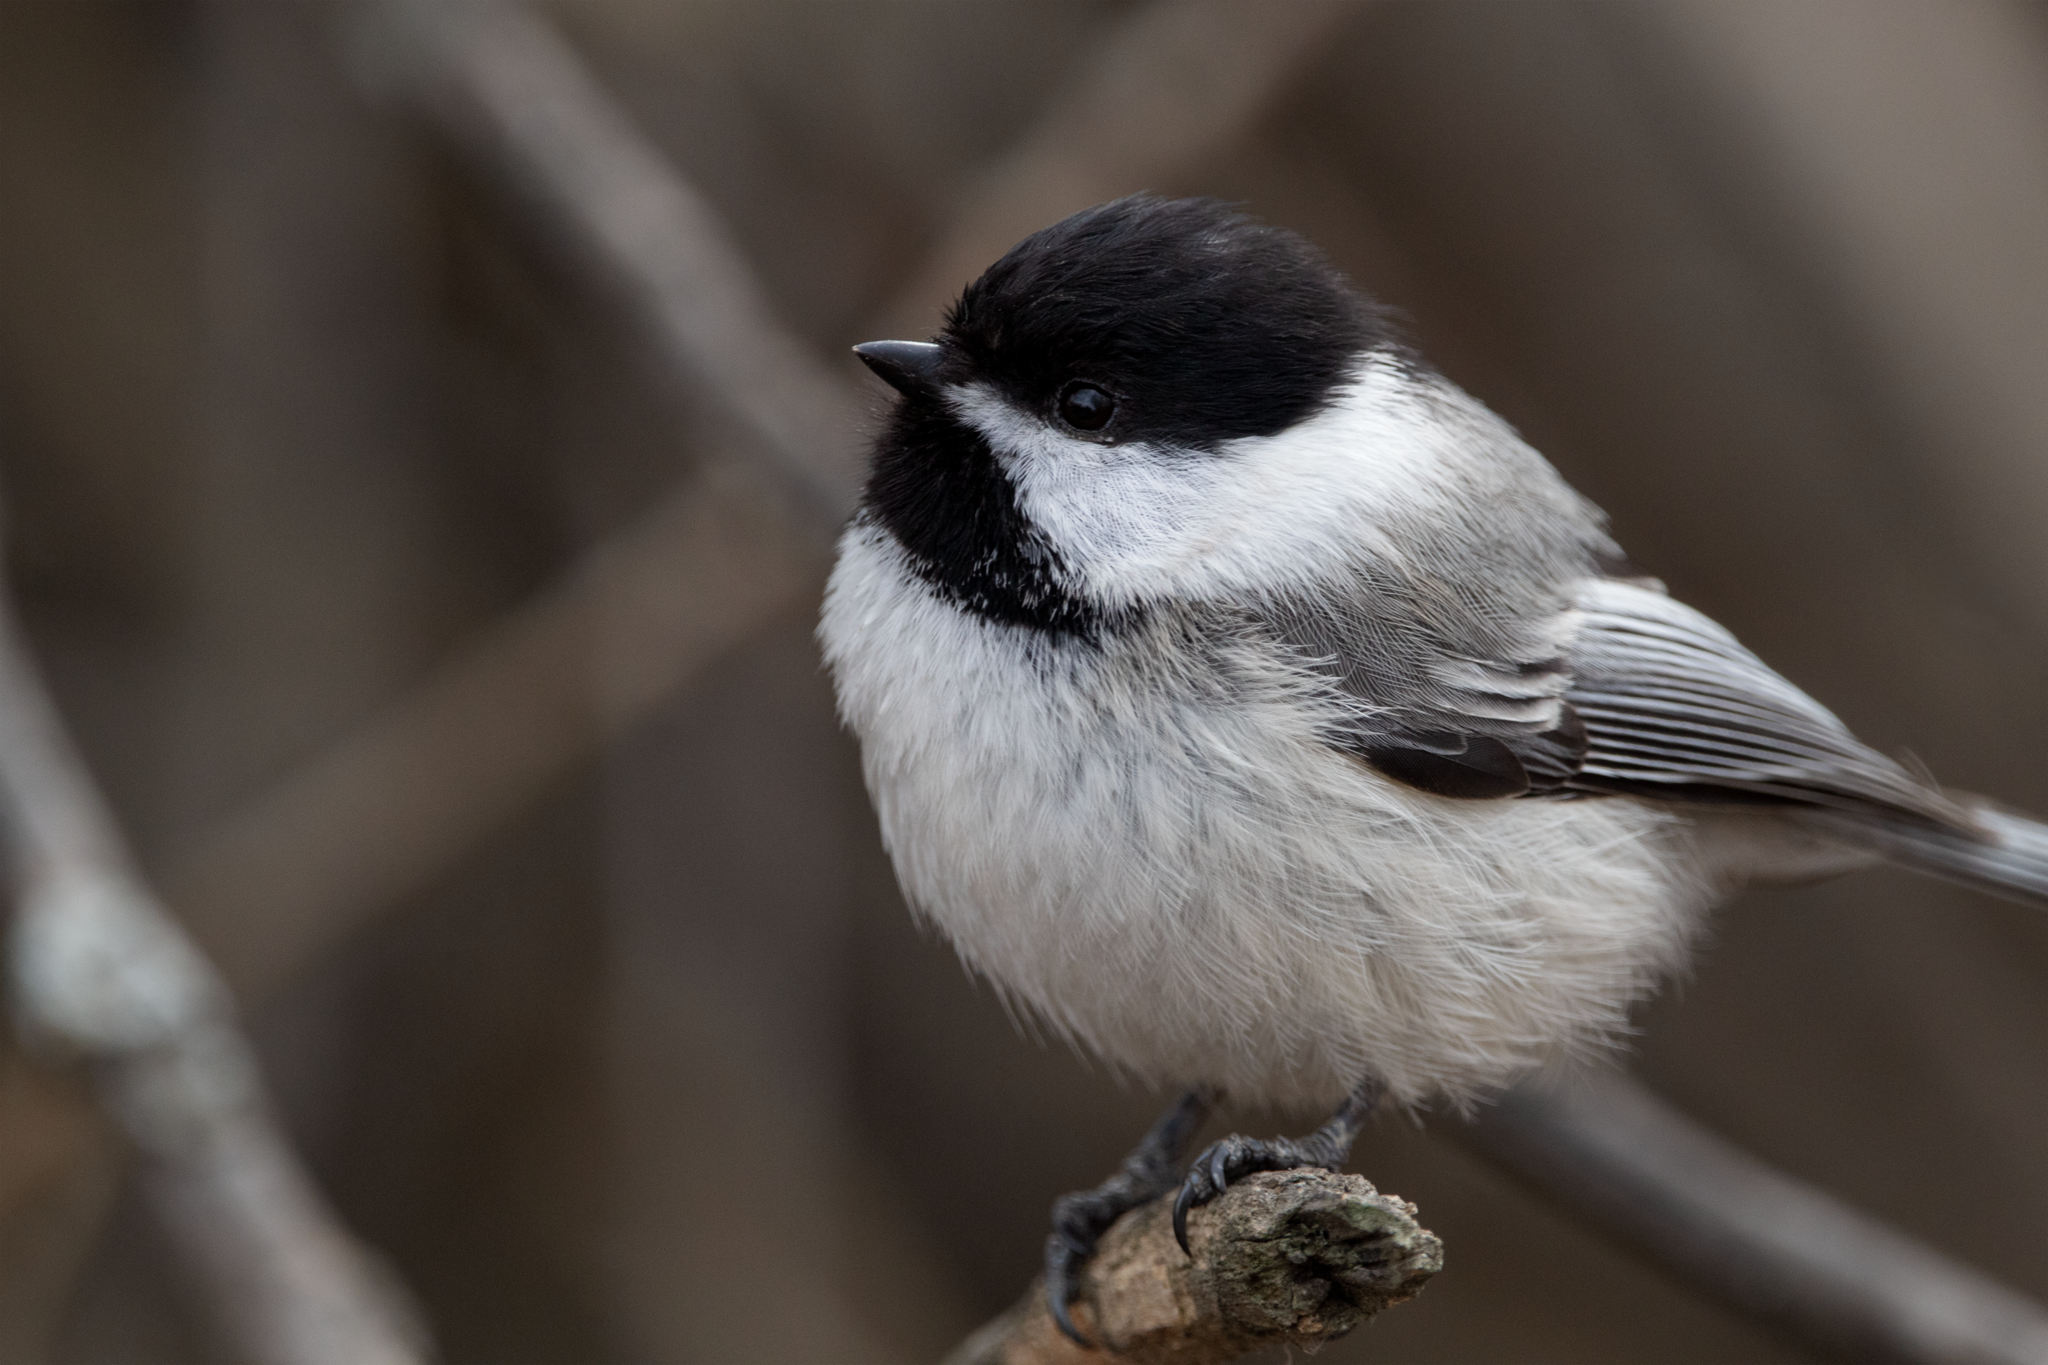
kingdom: Animalia
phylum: Chordata
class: Aves
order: Passeriformes
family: Paridae
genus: Poecile
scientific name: Poecile atricapillus
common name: Black-capped chickadee
